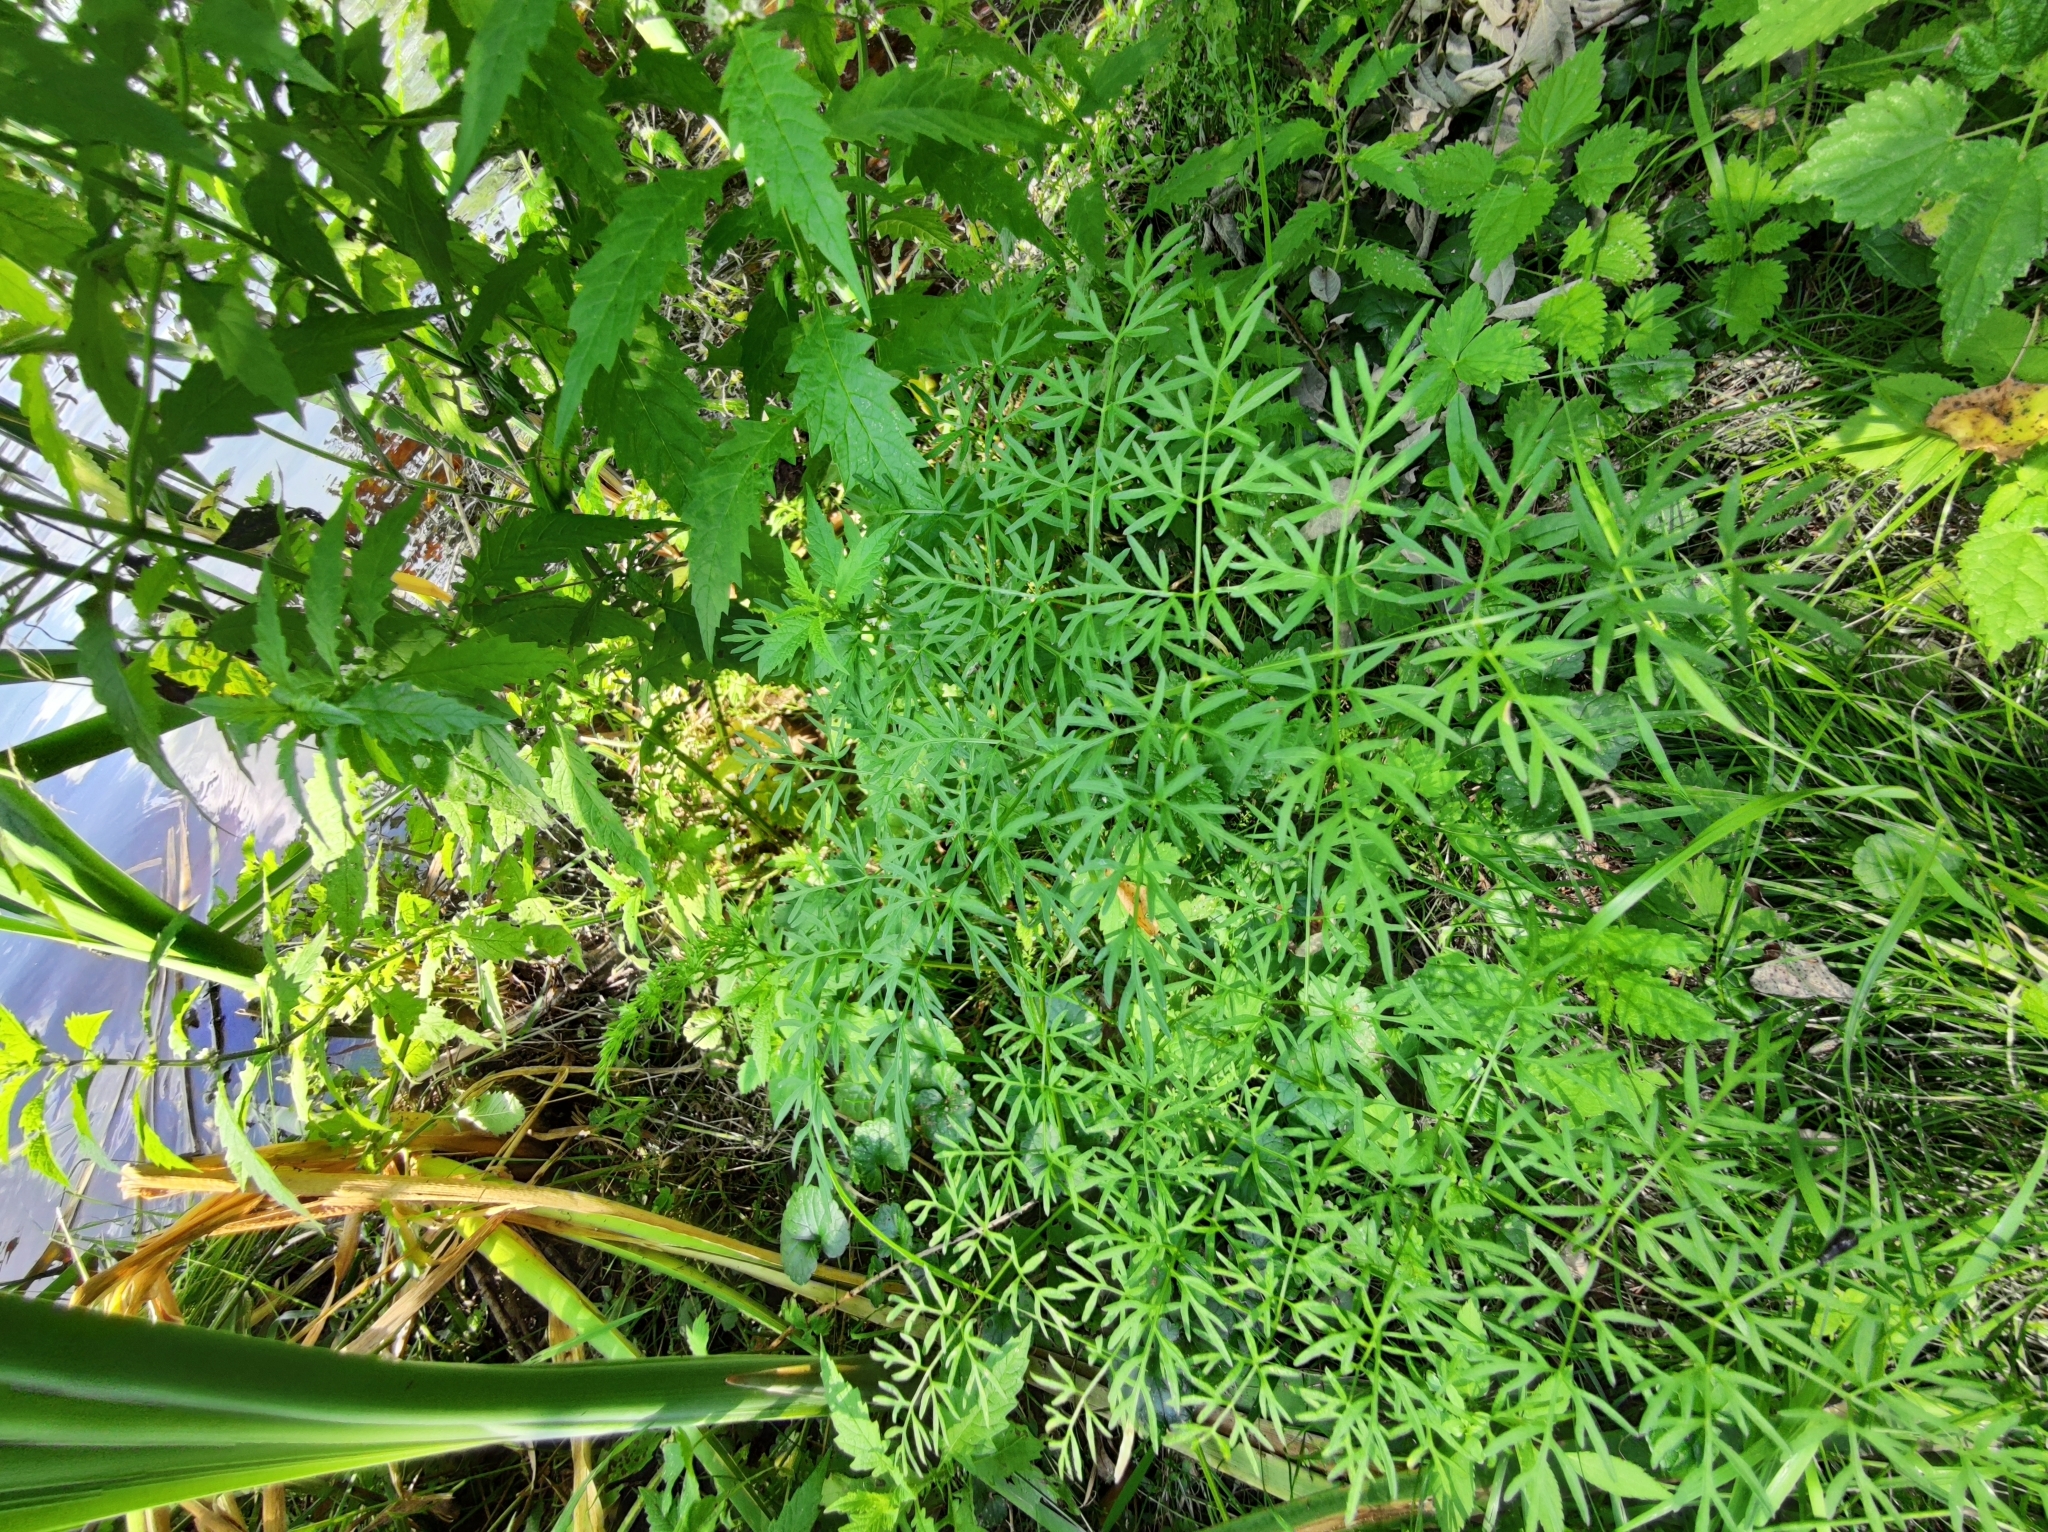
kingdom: Plantae
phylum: Tracheophyta
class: Magnoliopsida
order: Apiales
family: Apiaceae
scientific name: Apiaceae
